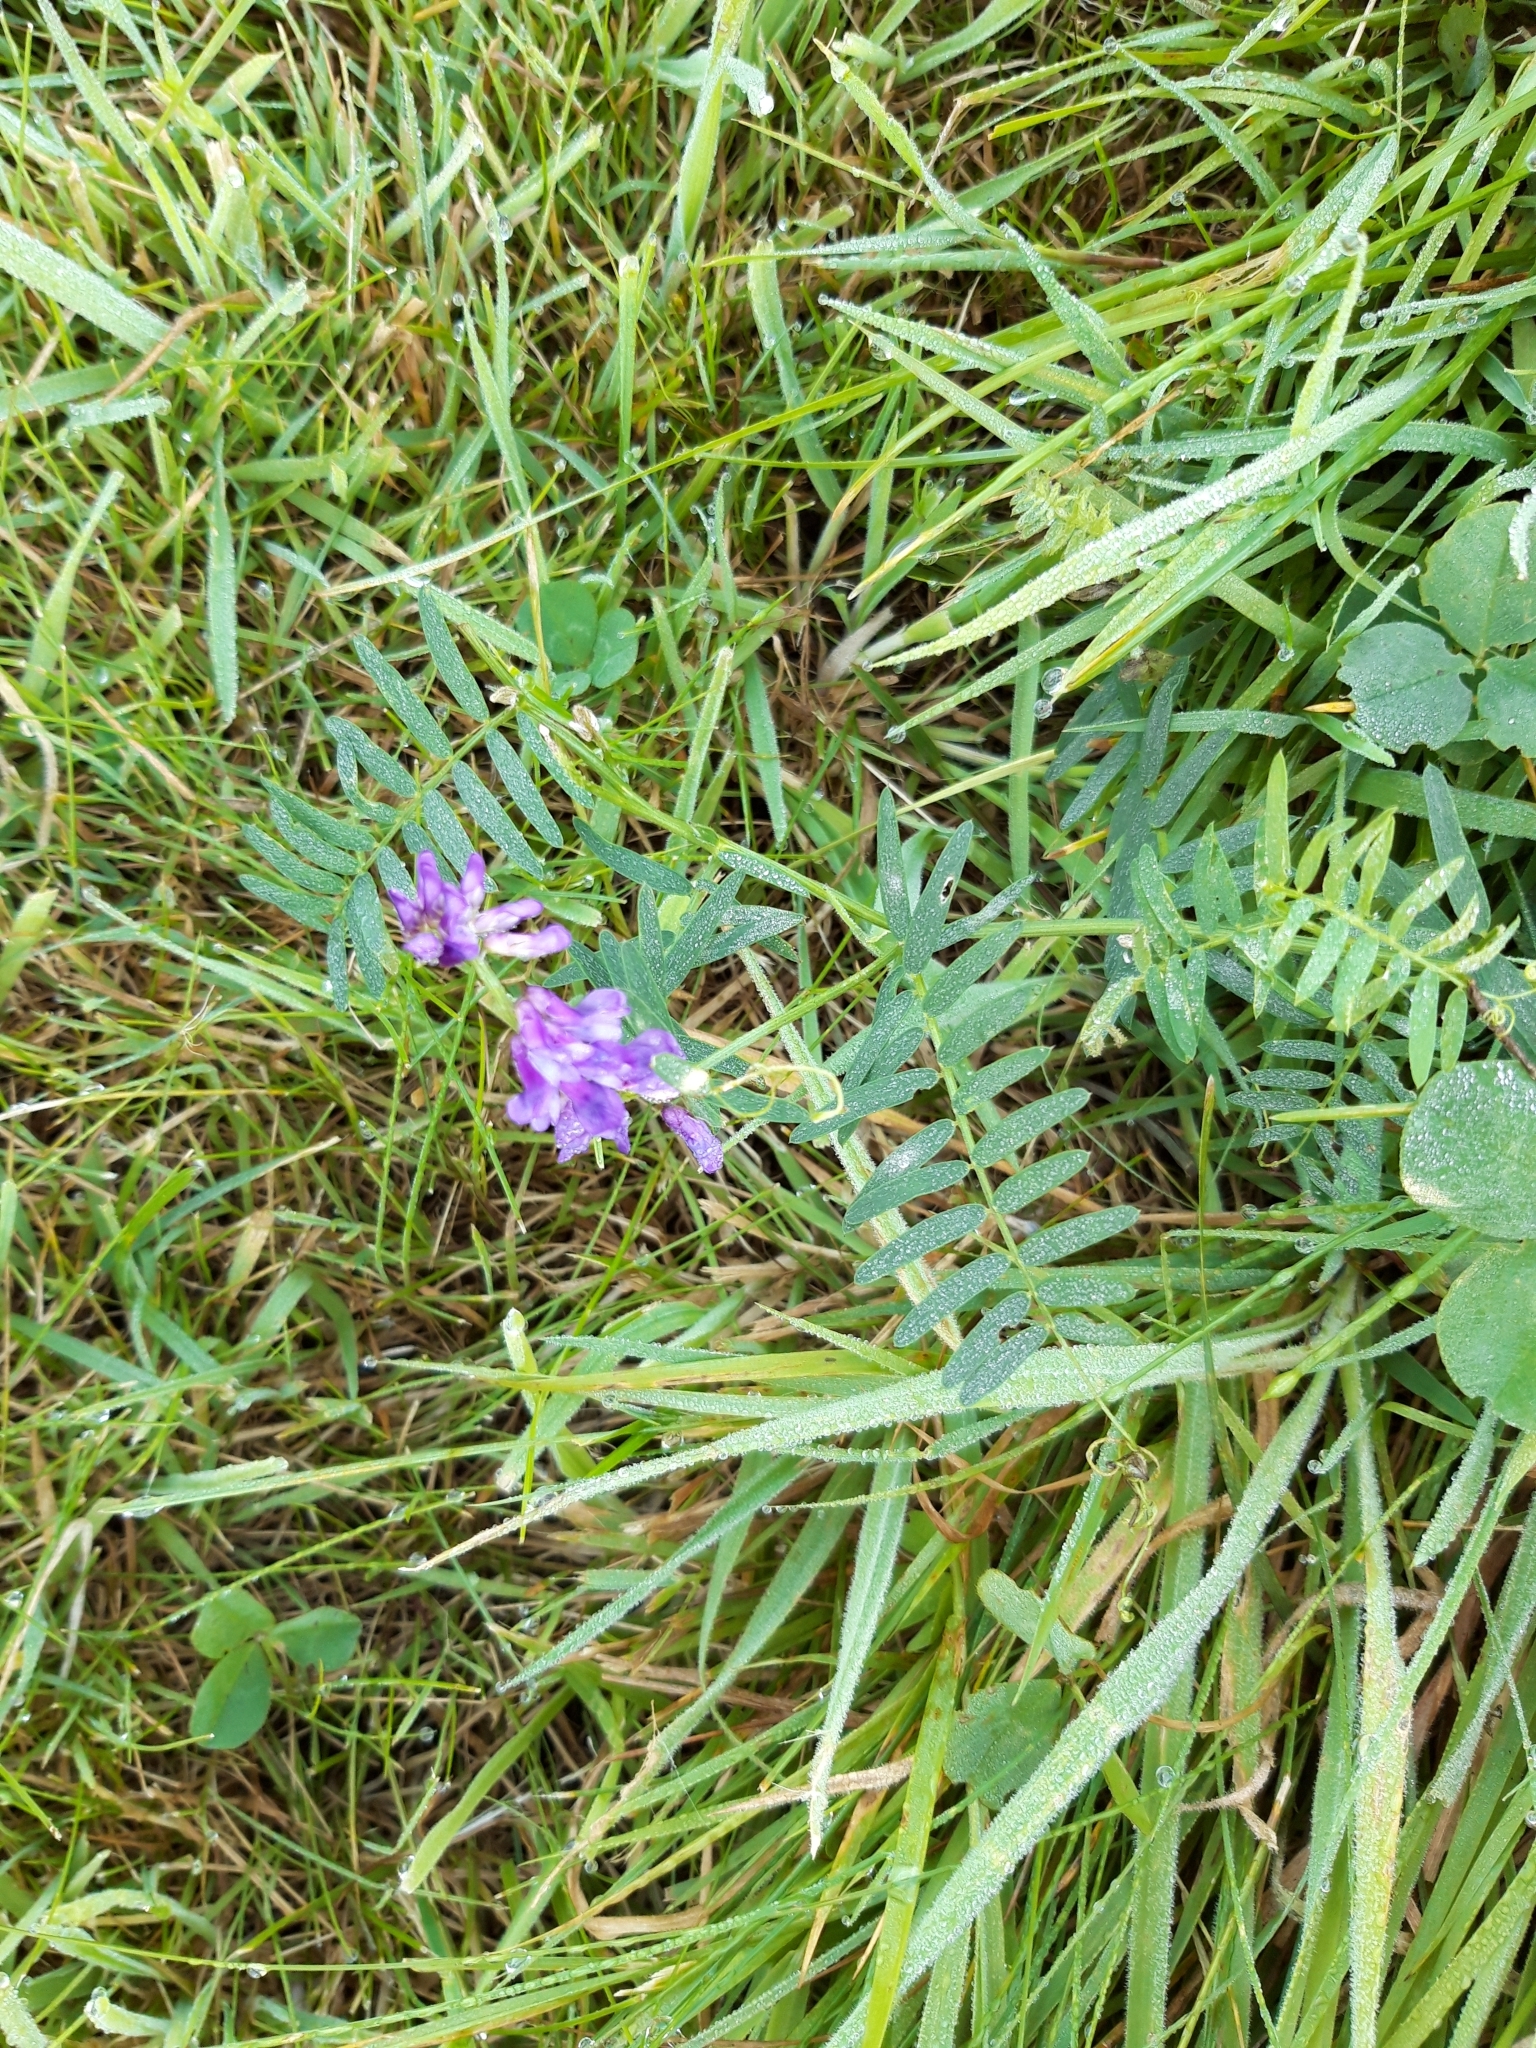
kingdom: Plantae
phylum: Tracheophyta
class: Magnoliopsida
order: Fabales
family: Fabaceae
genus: Vicia
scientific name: Vicia cracca
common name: Bird vetch
